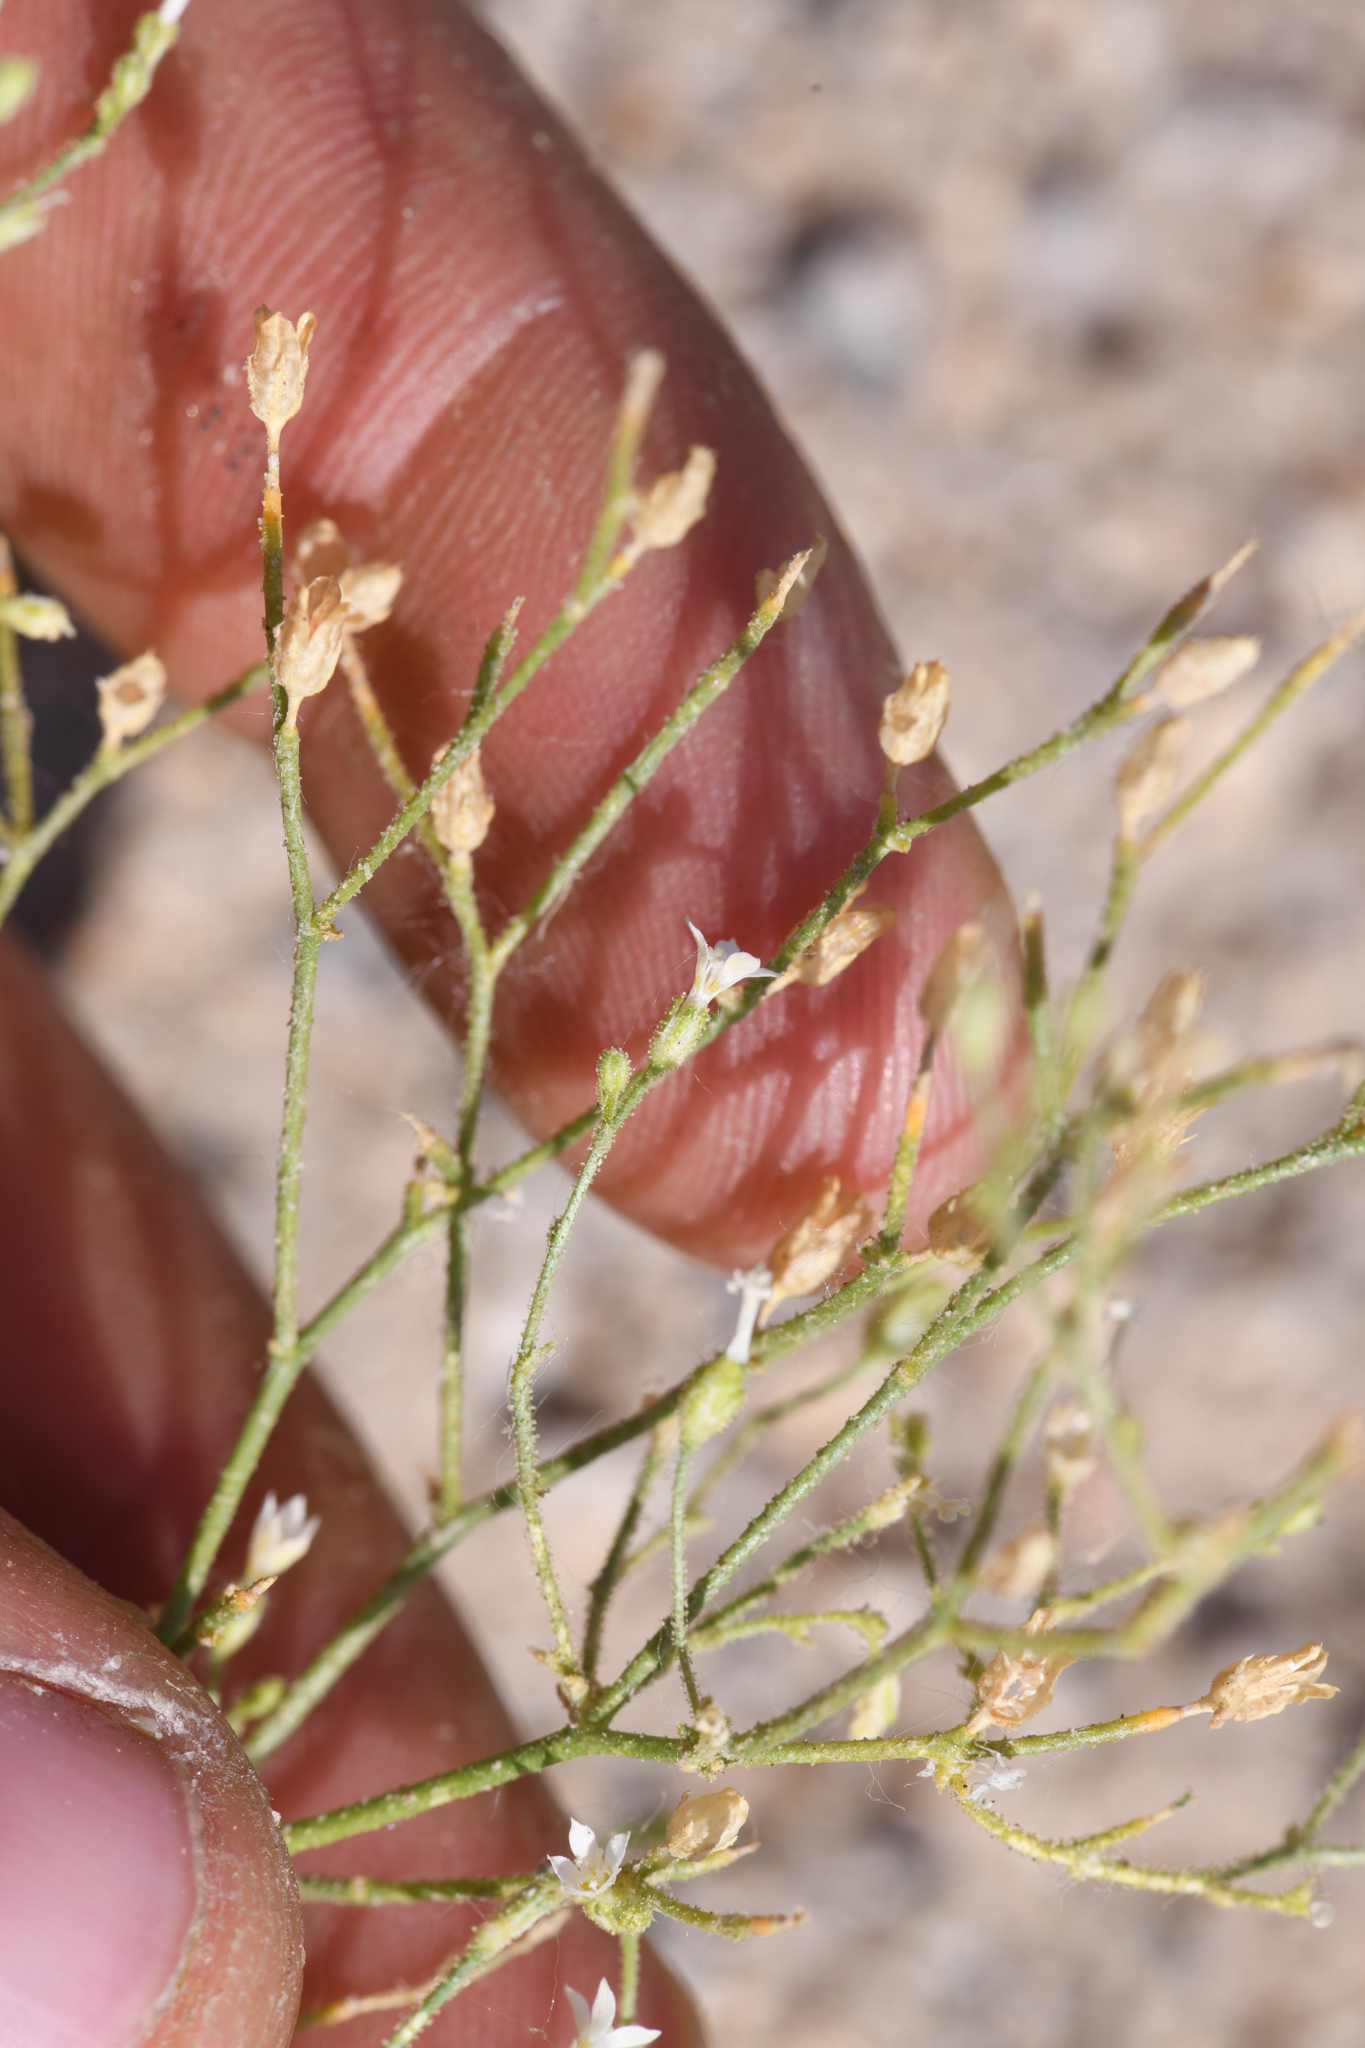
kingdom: Plantae
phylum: Tracheophyta
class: Magnoliopsida
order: Ericales
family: Polemoniaceae
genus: Aliciella
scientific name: Aliciella lottiae
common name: Lott's gilia
